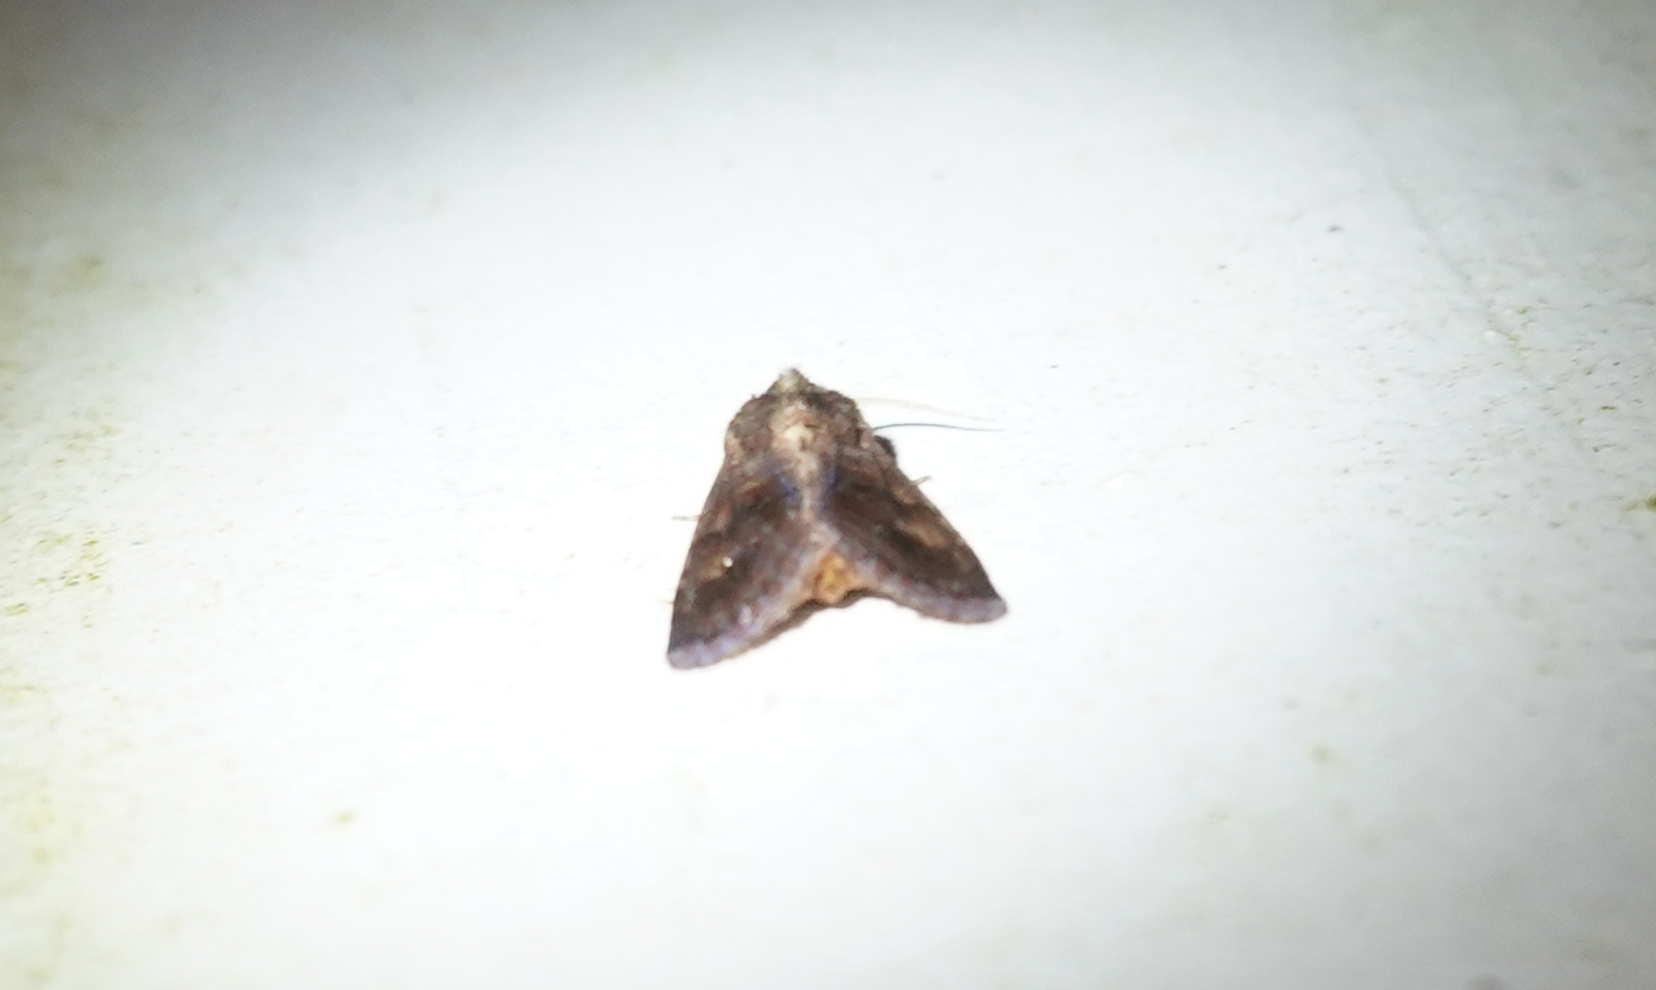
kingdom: Animalia
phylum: Arthropoda
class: Insecta
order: Lepidoptera
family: Noctuidae
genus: Nephelodes
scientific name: Nephelodes minians
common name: Bronzed cutworm
